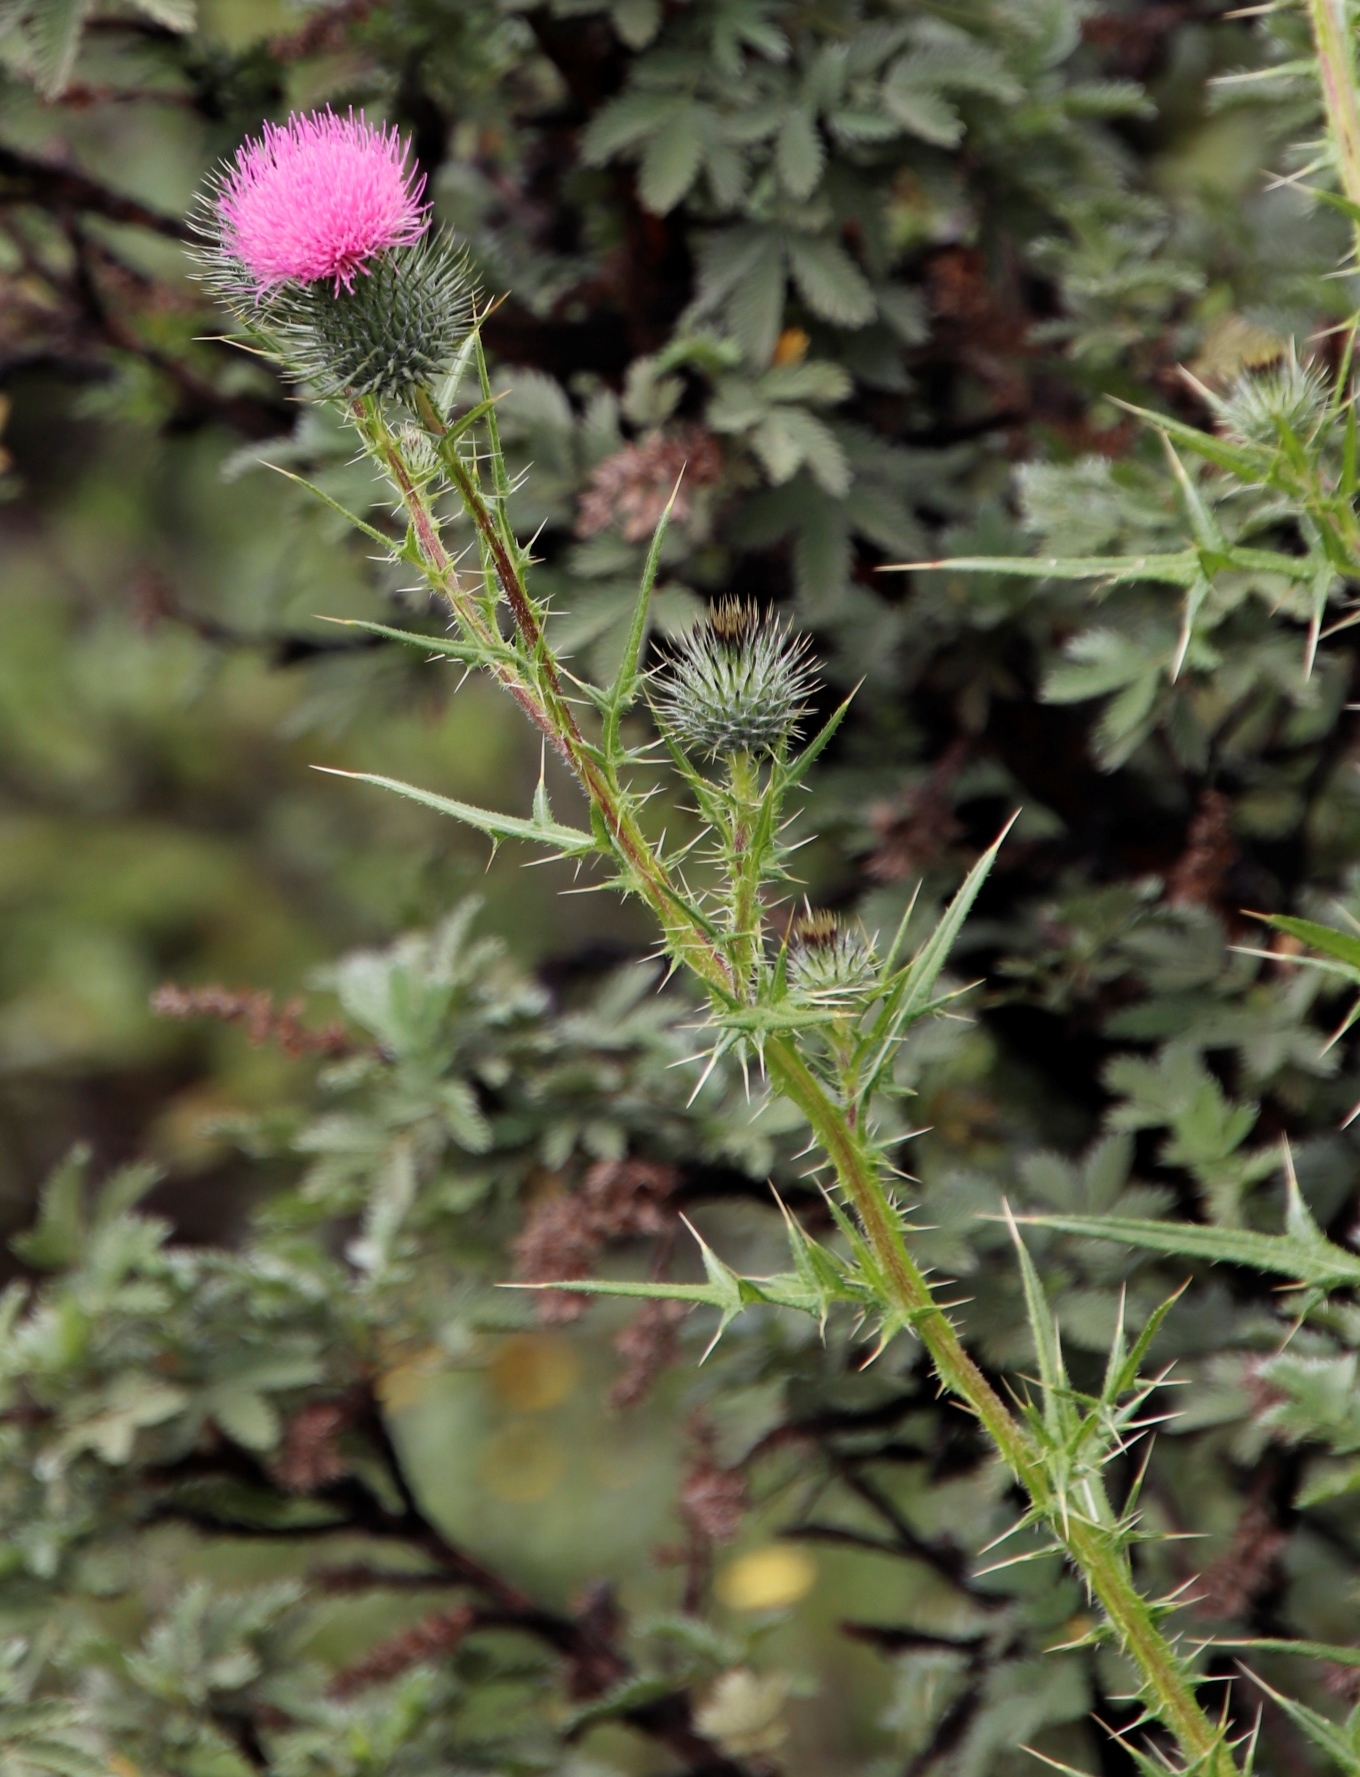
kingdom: Plantae
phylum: Tracheophyta
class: Magnoliopsida
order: Asterales
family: Asteraceae
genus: Cirsium
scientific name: Cirsium vulgare
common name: Bull thistle
